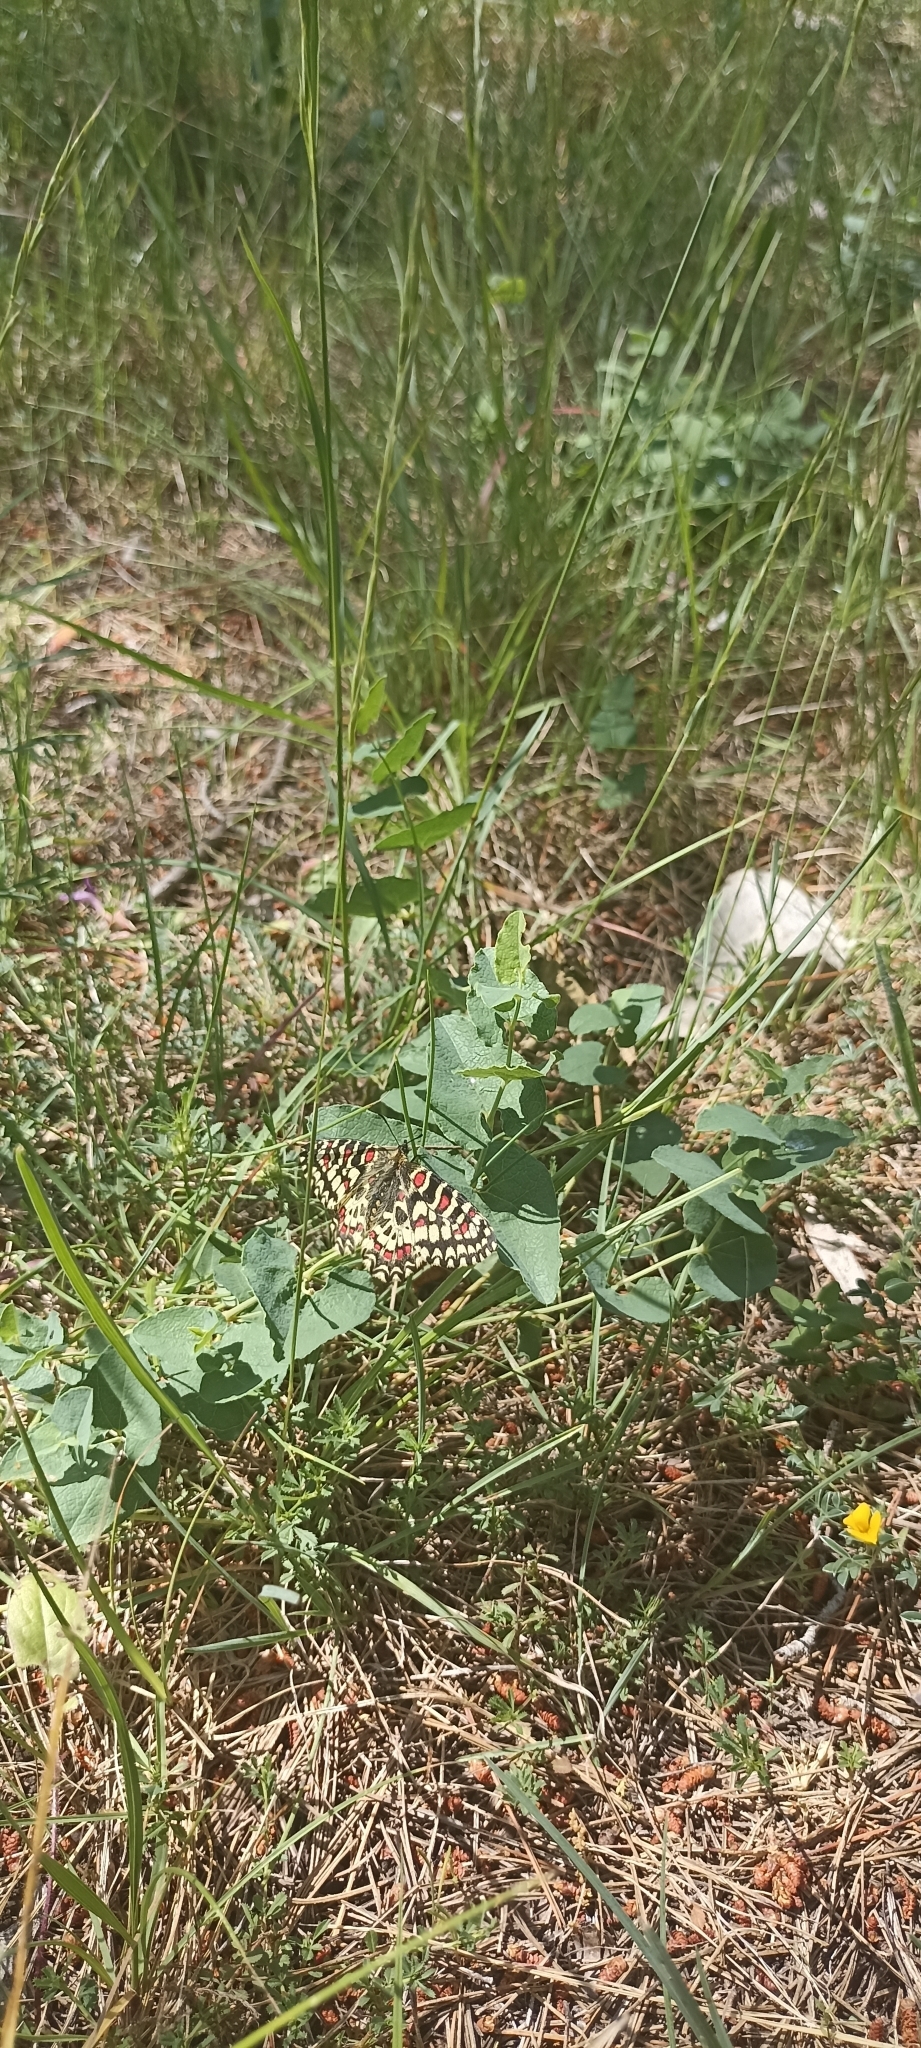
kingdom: Animalia
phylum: Arthropoda
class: Insecta
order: Lepidoptera
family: Papilionidae
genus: Zerynthia
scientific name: Zerynthia rumina
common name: Spanish festoon
